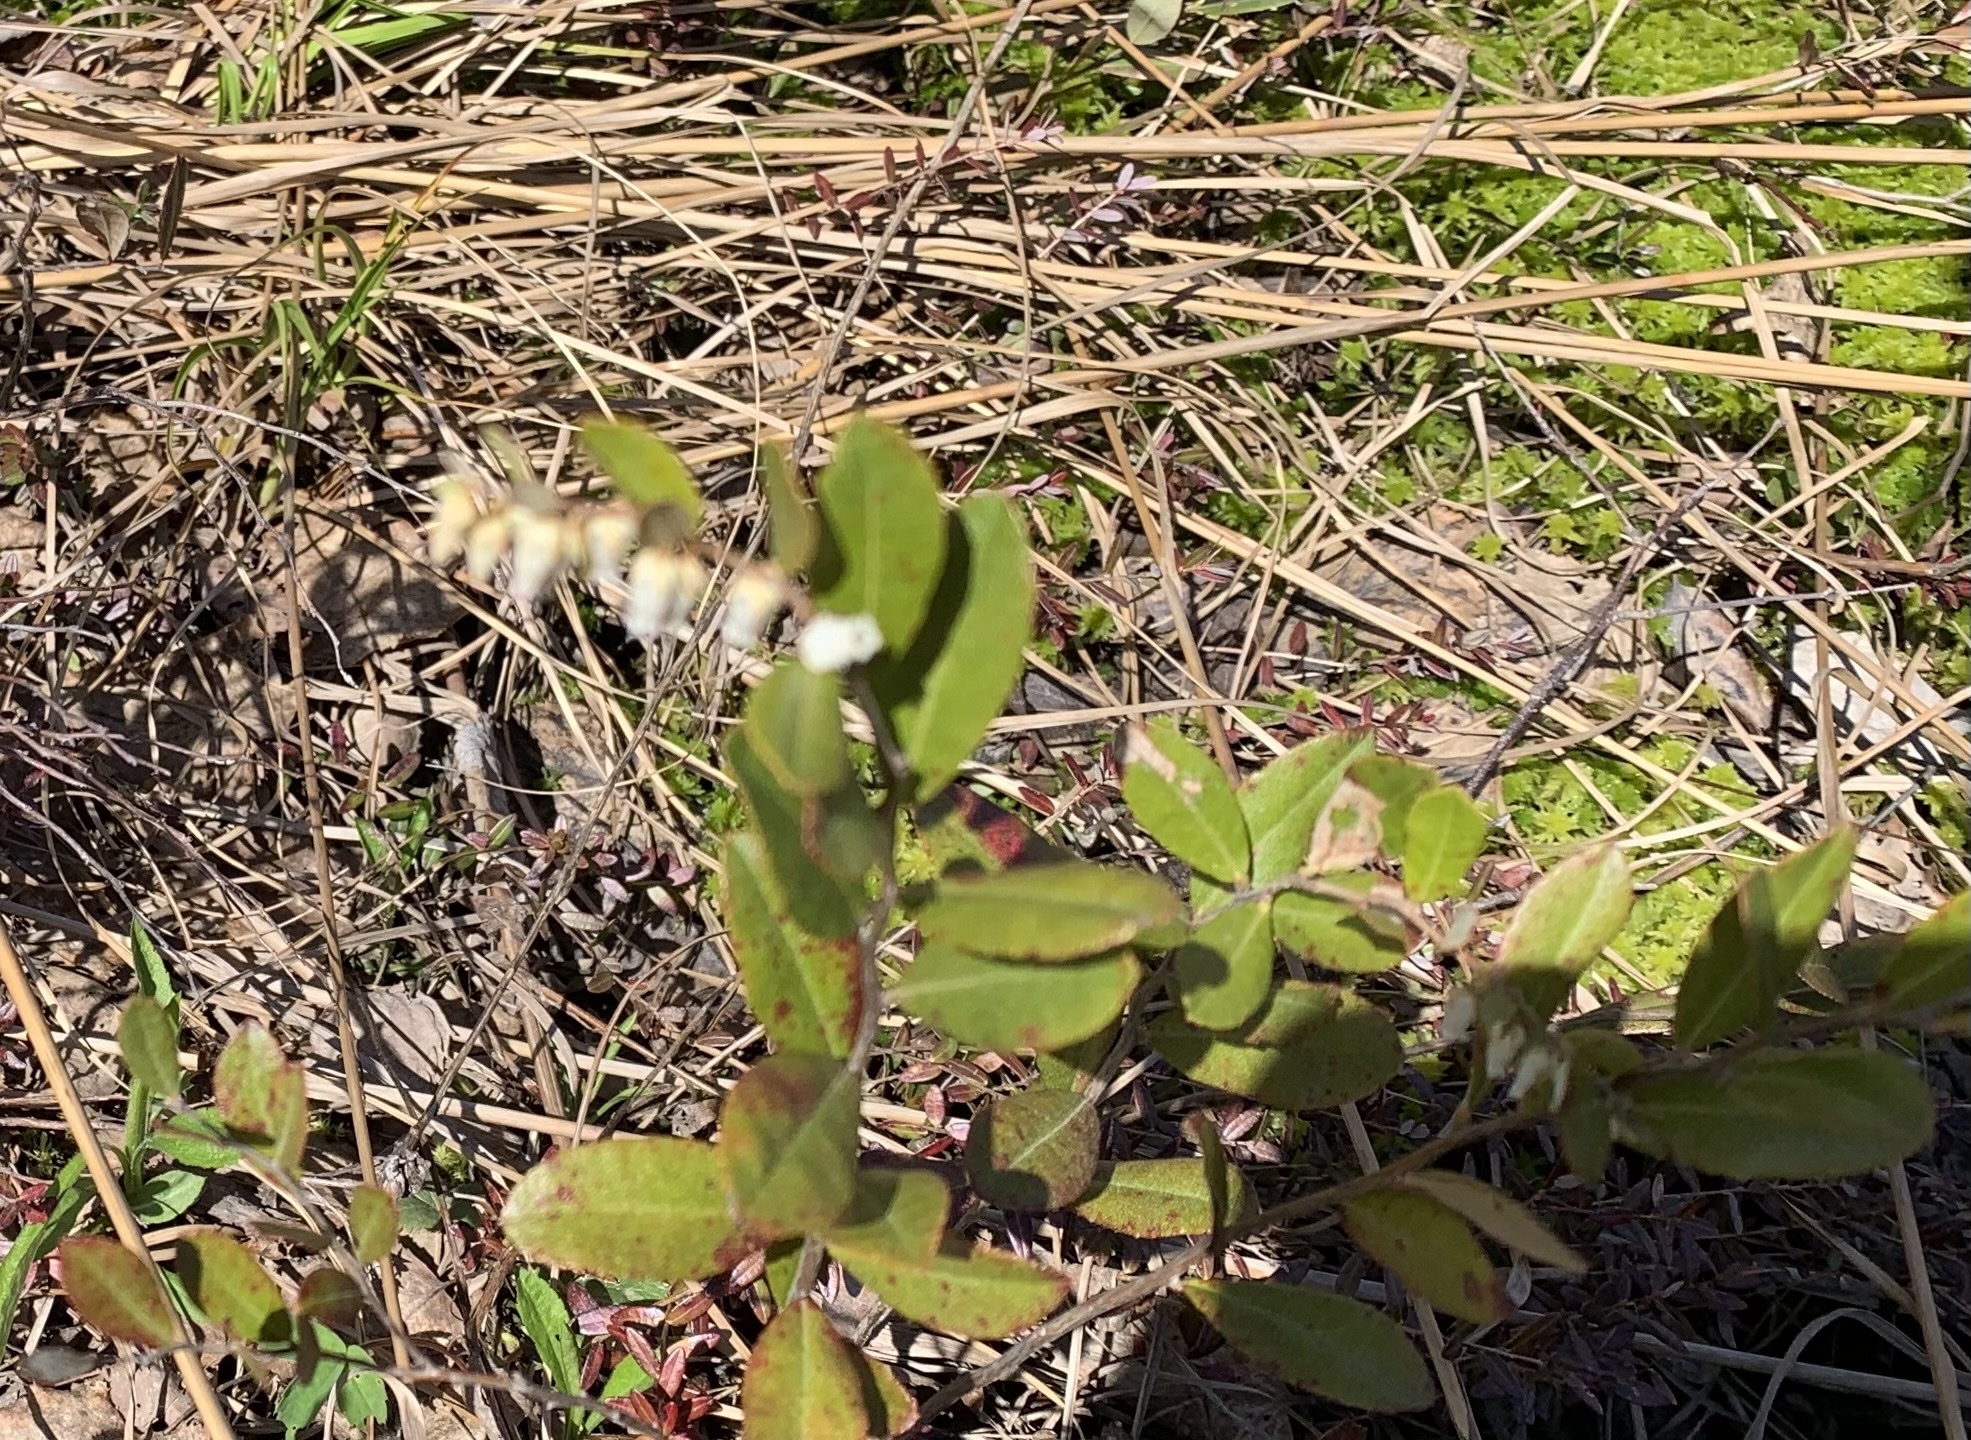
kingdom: Plantae
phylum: Tracheophyta
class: Magnoliopsida
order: Ericales
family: Ericaceae
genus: Chamaedaphne
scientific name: Chamaedaphne calyculata
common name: Leatherleaf
